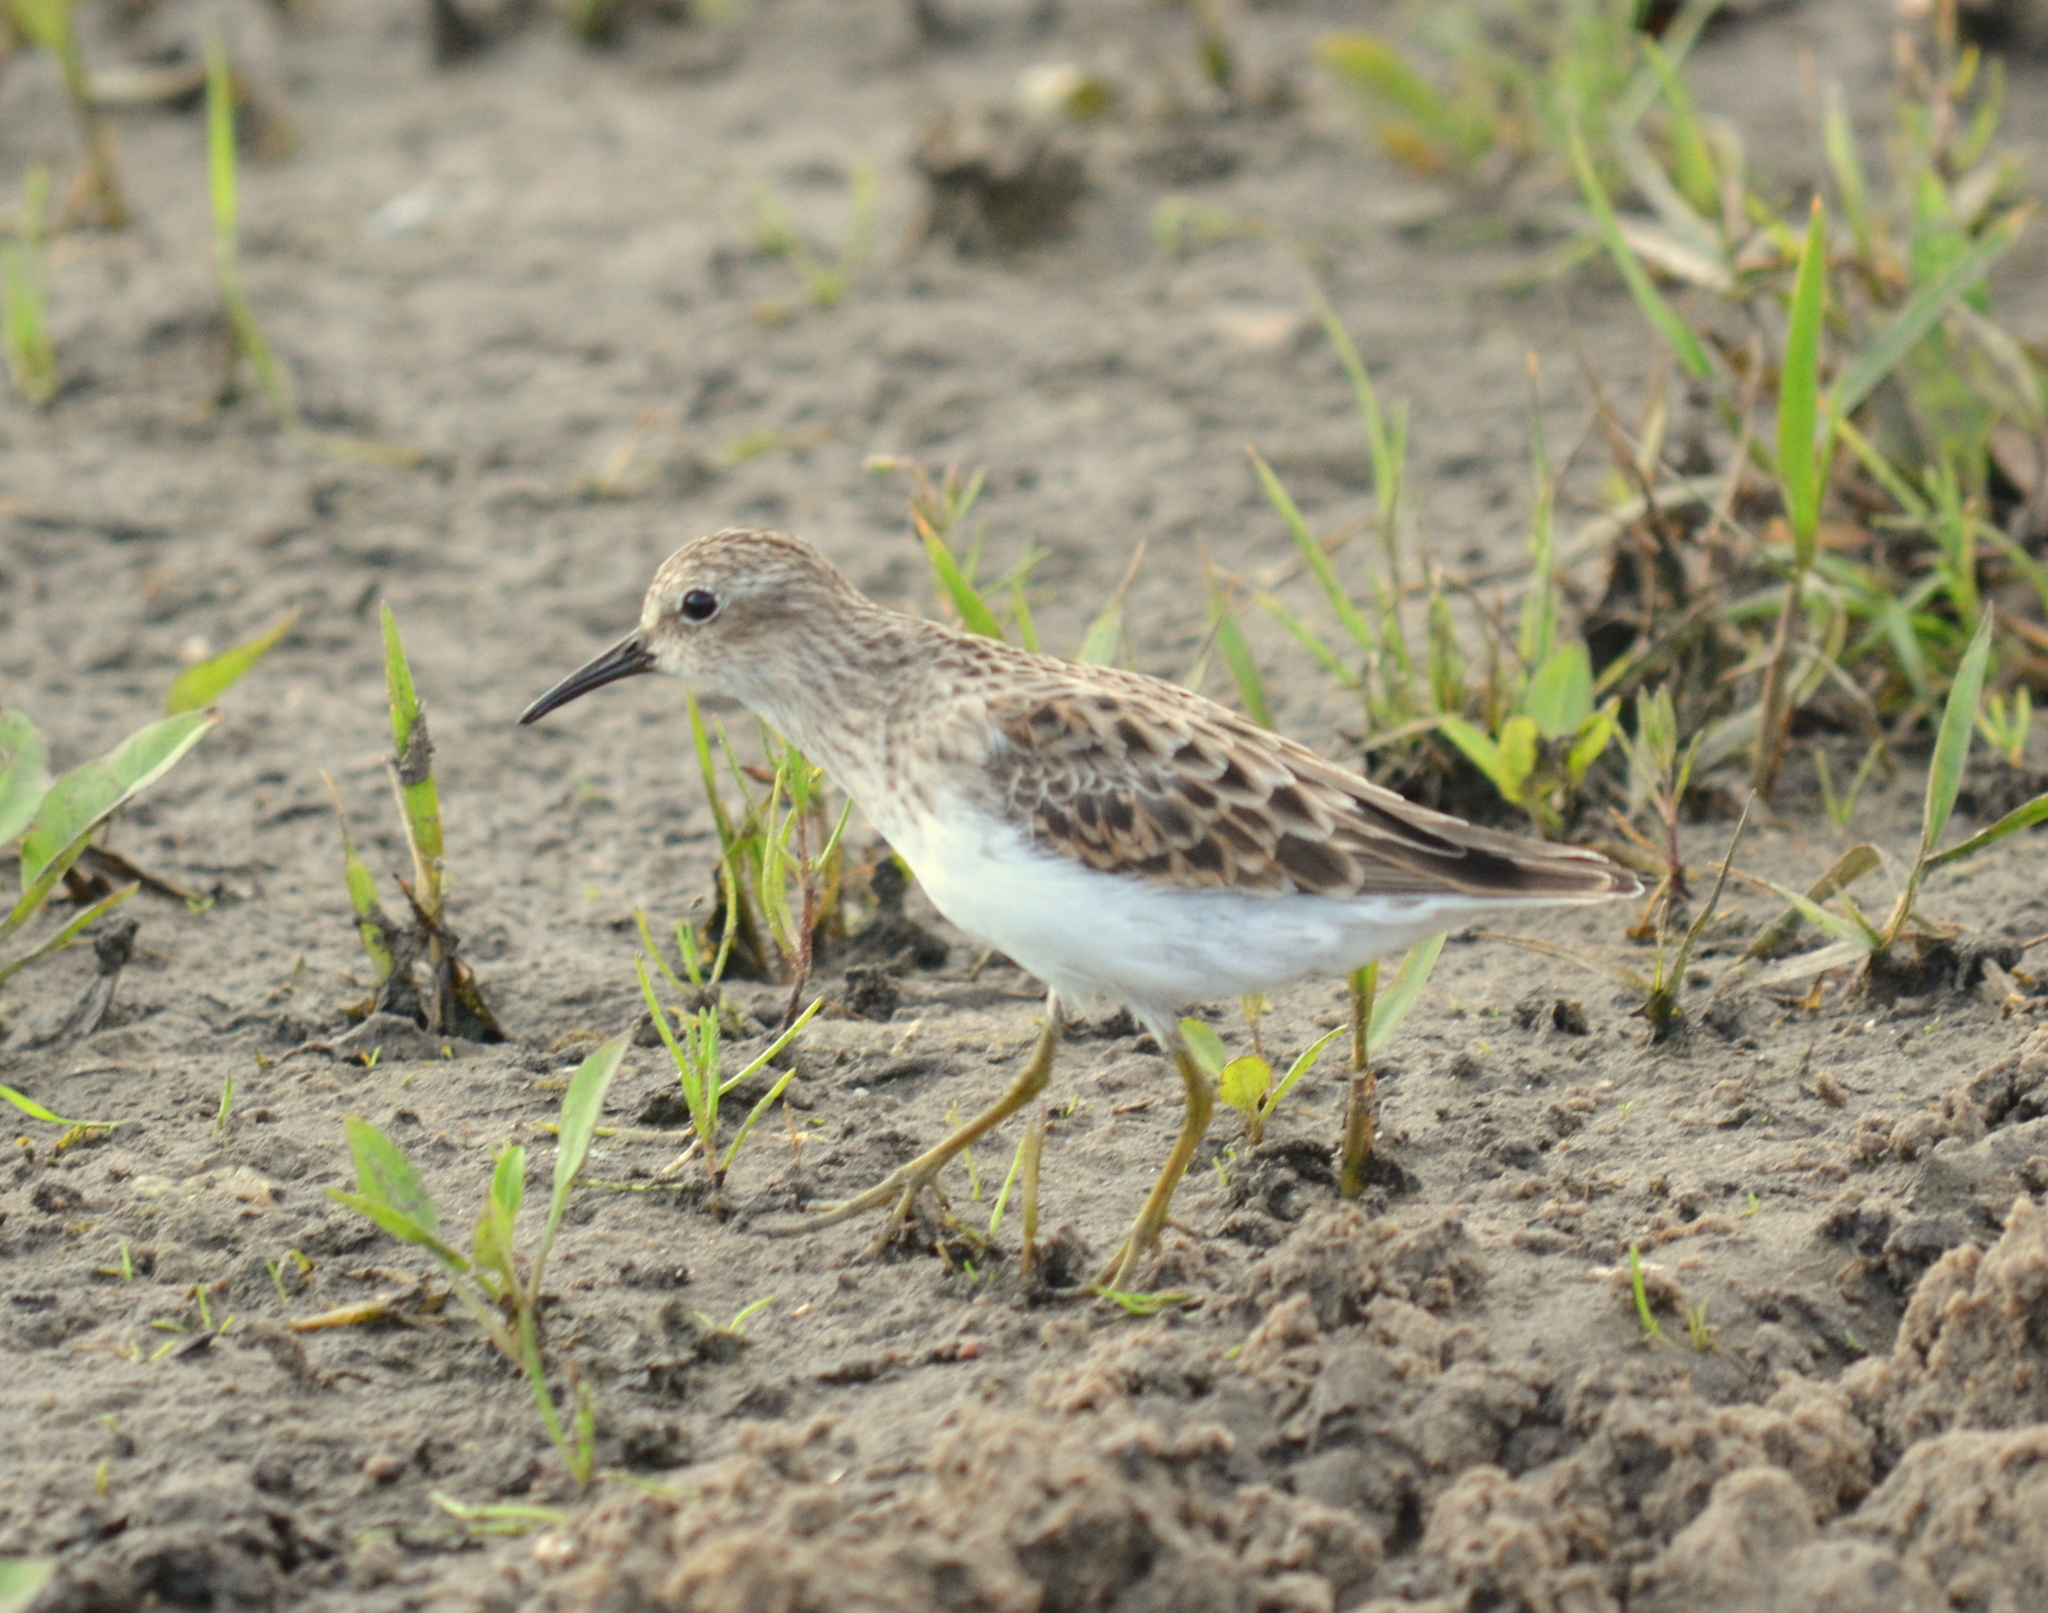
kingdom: Animalia
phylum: Chordata
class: Aves
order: Charadriiformes
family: Scolopacidae
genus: Calidris
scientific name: Calidris minutilla
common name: Least sandpiper
